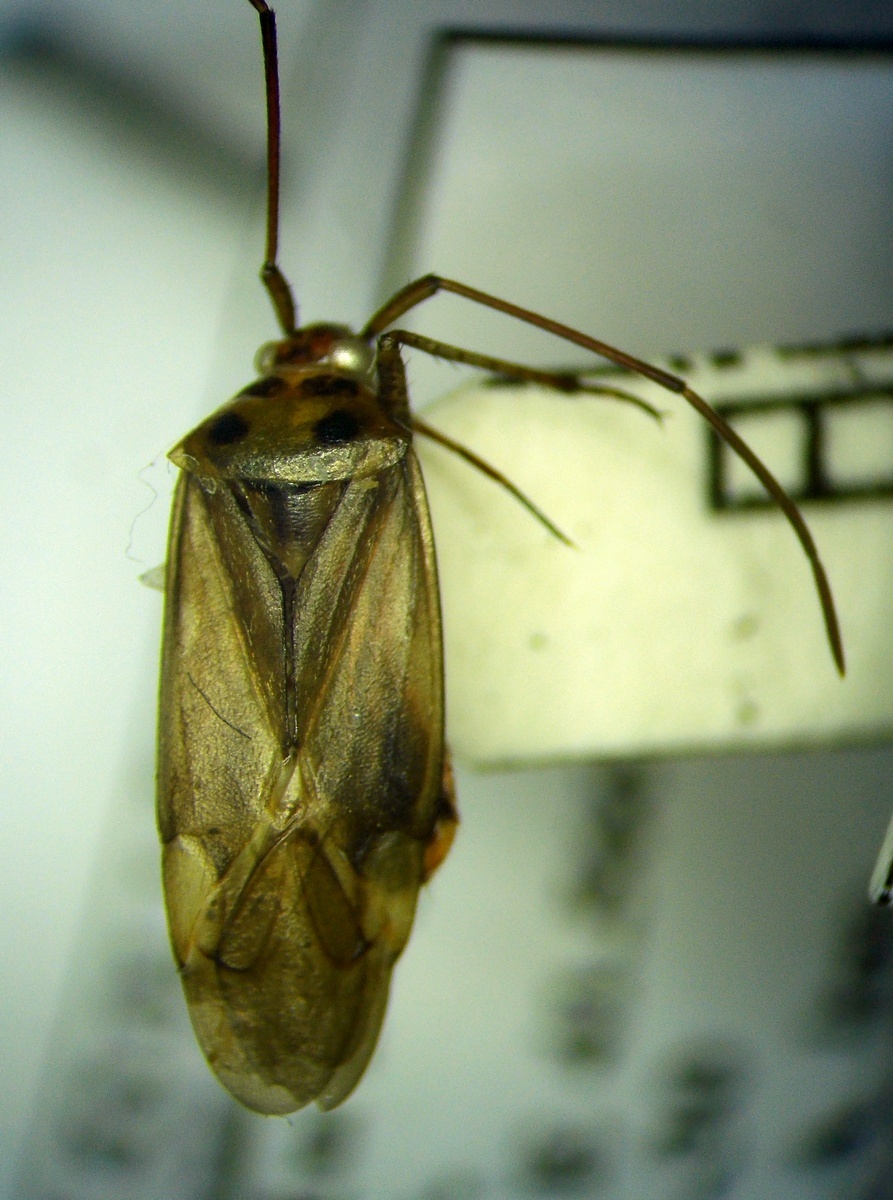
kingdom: Animalia
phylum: Arthropoda
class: Insecta
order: Hemiptera
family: Miridae
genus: Adelphocoris
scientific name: Adelphocoris ticinensis
